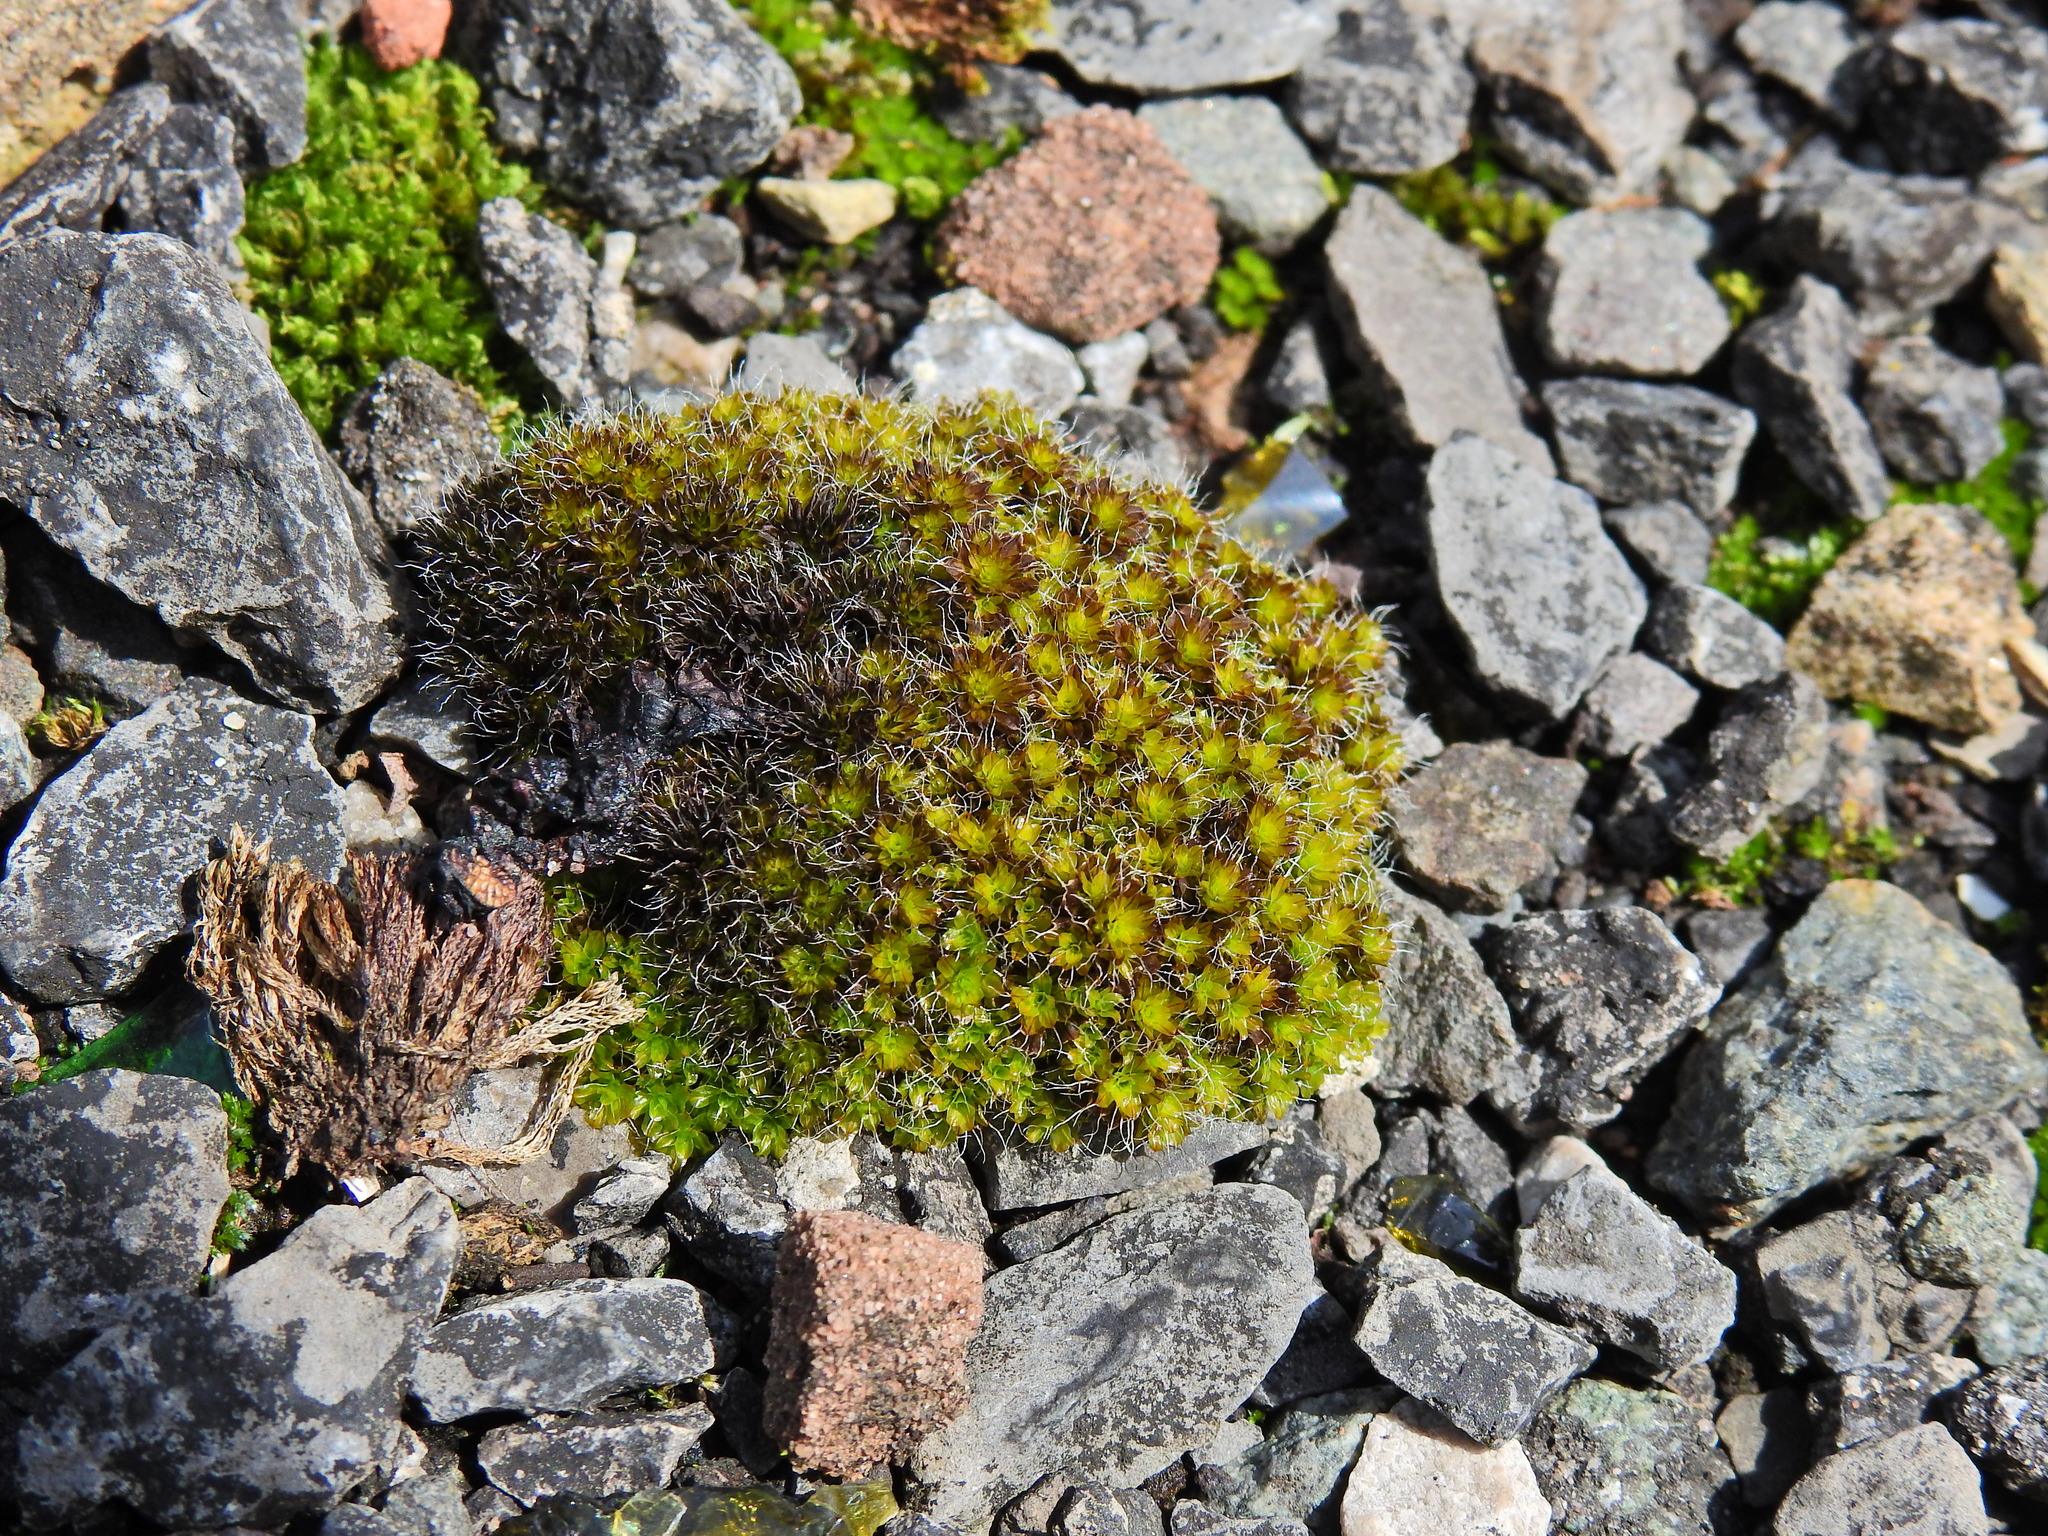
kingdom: Plantae
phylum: Bryophyta
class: Bryopsida
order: Pottiales
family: Pottiaceae
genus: Syntrichia
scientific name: Syntrichia montana
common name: Intermediate screw-moss
